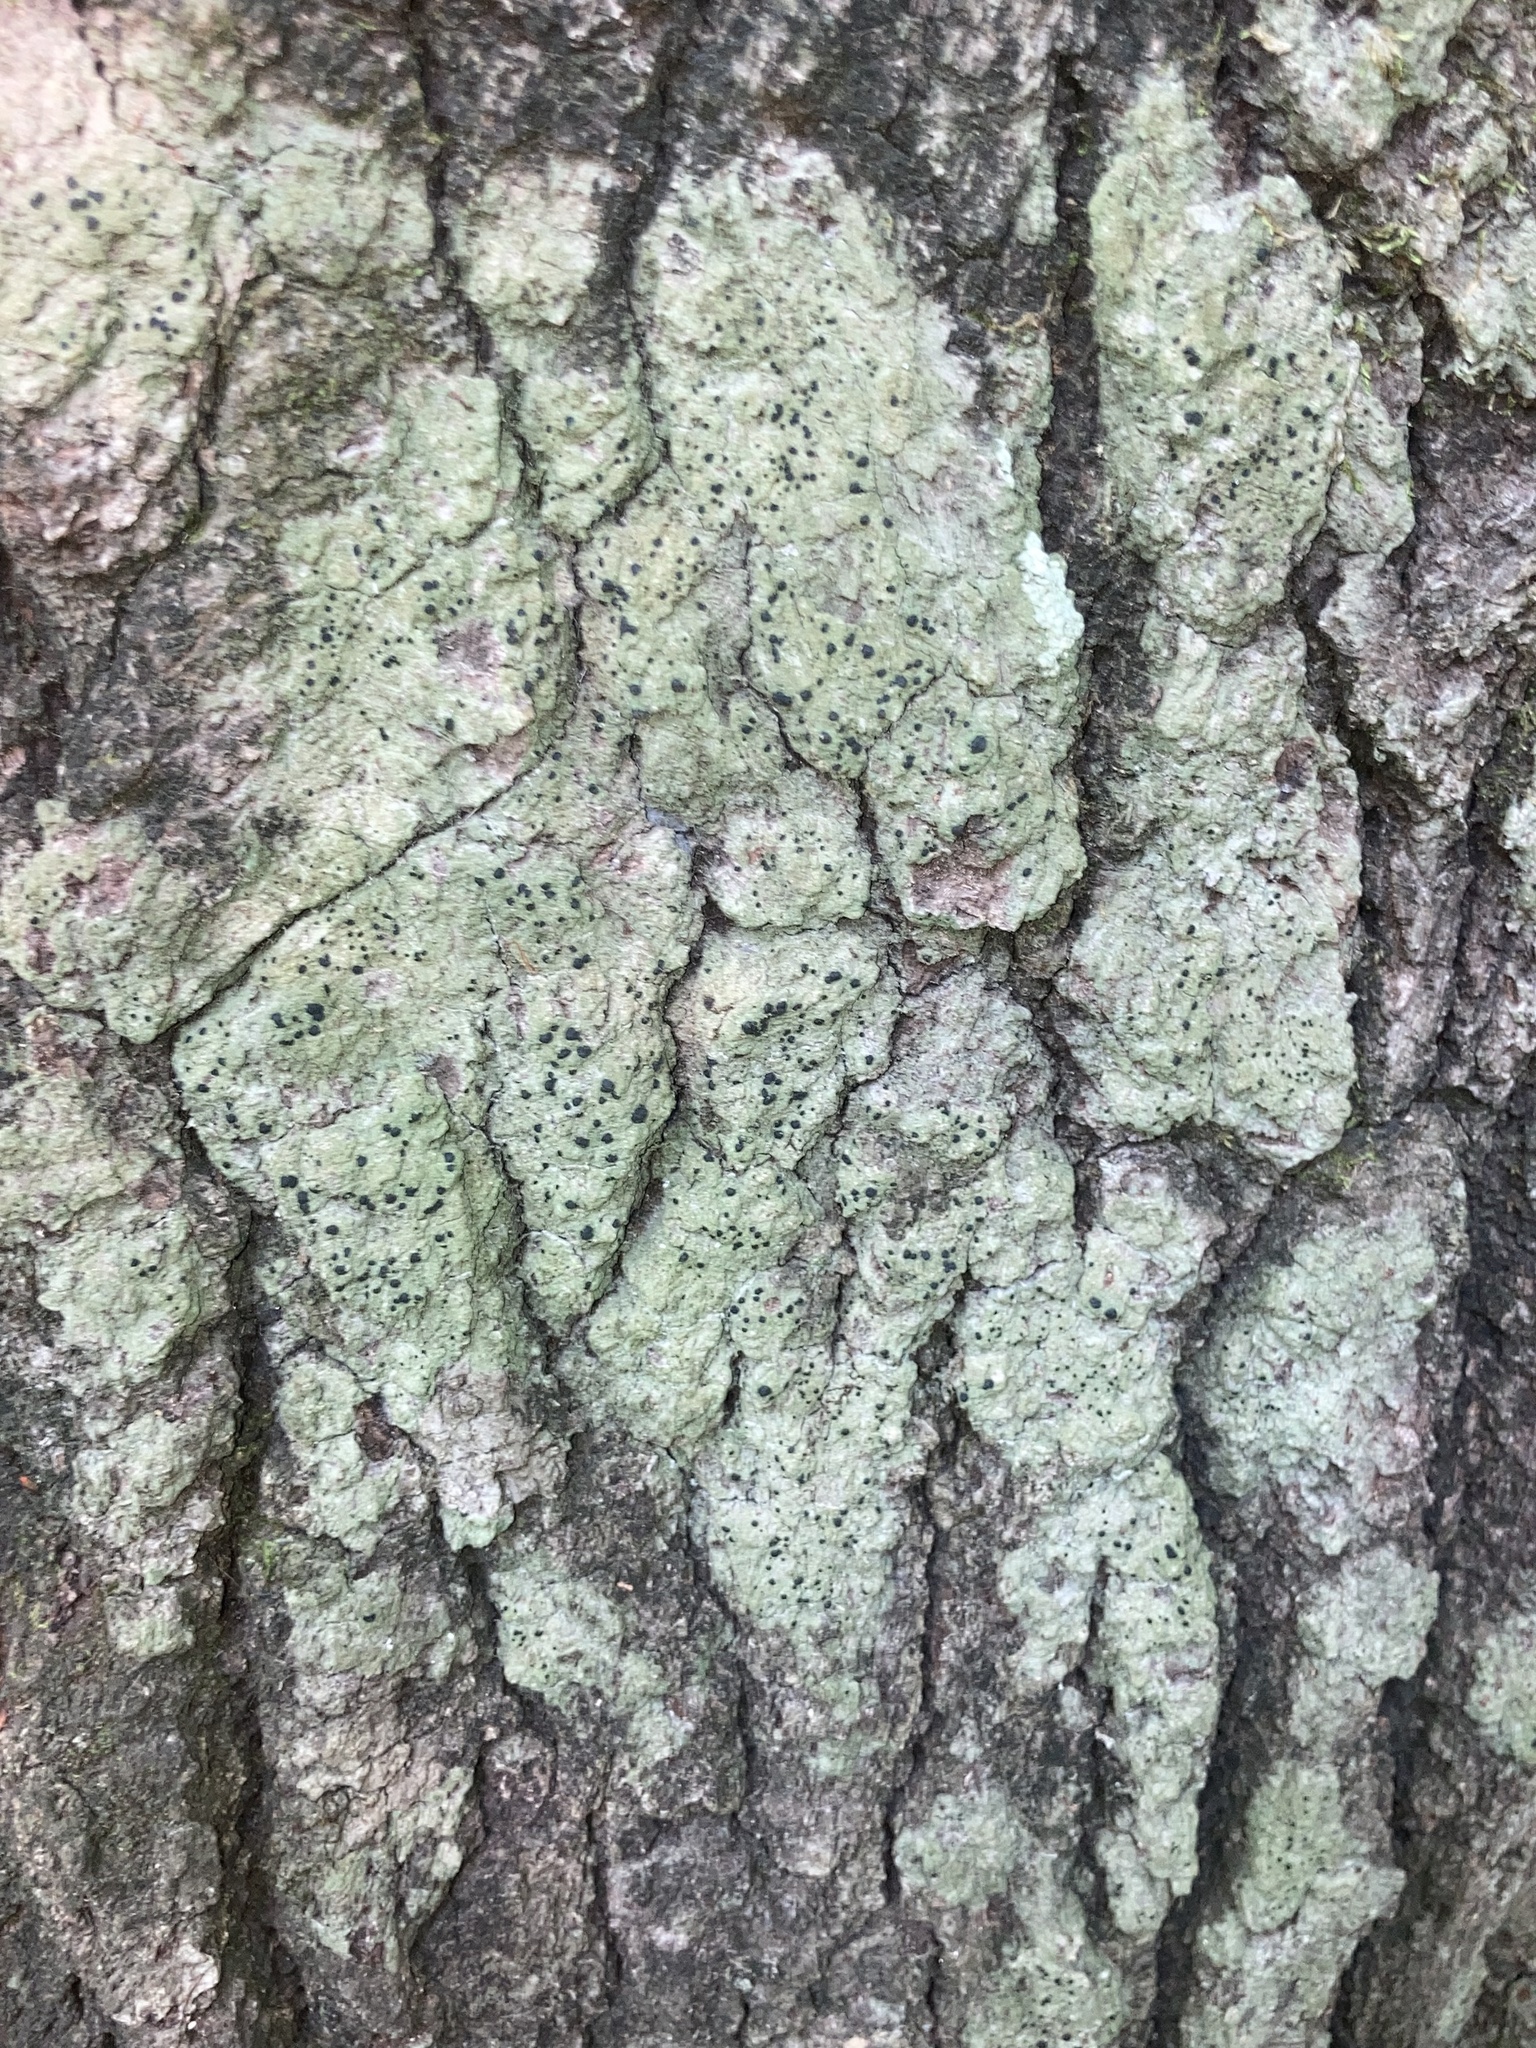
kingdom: Fungi
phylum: Ascomycota
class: Lecanoromycetes
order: Lecanorales
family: Ramalinaceae
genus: Bacidia
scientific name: Bacidia schweinitzii
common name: Surprise lichen
